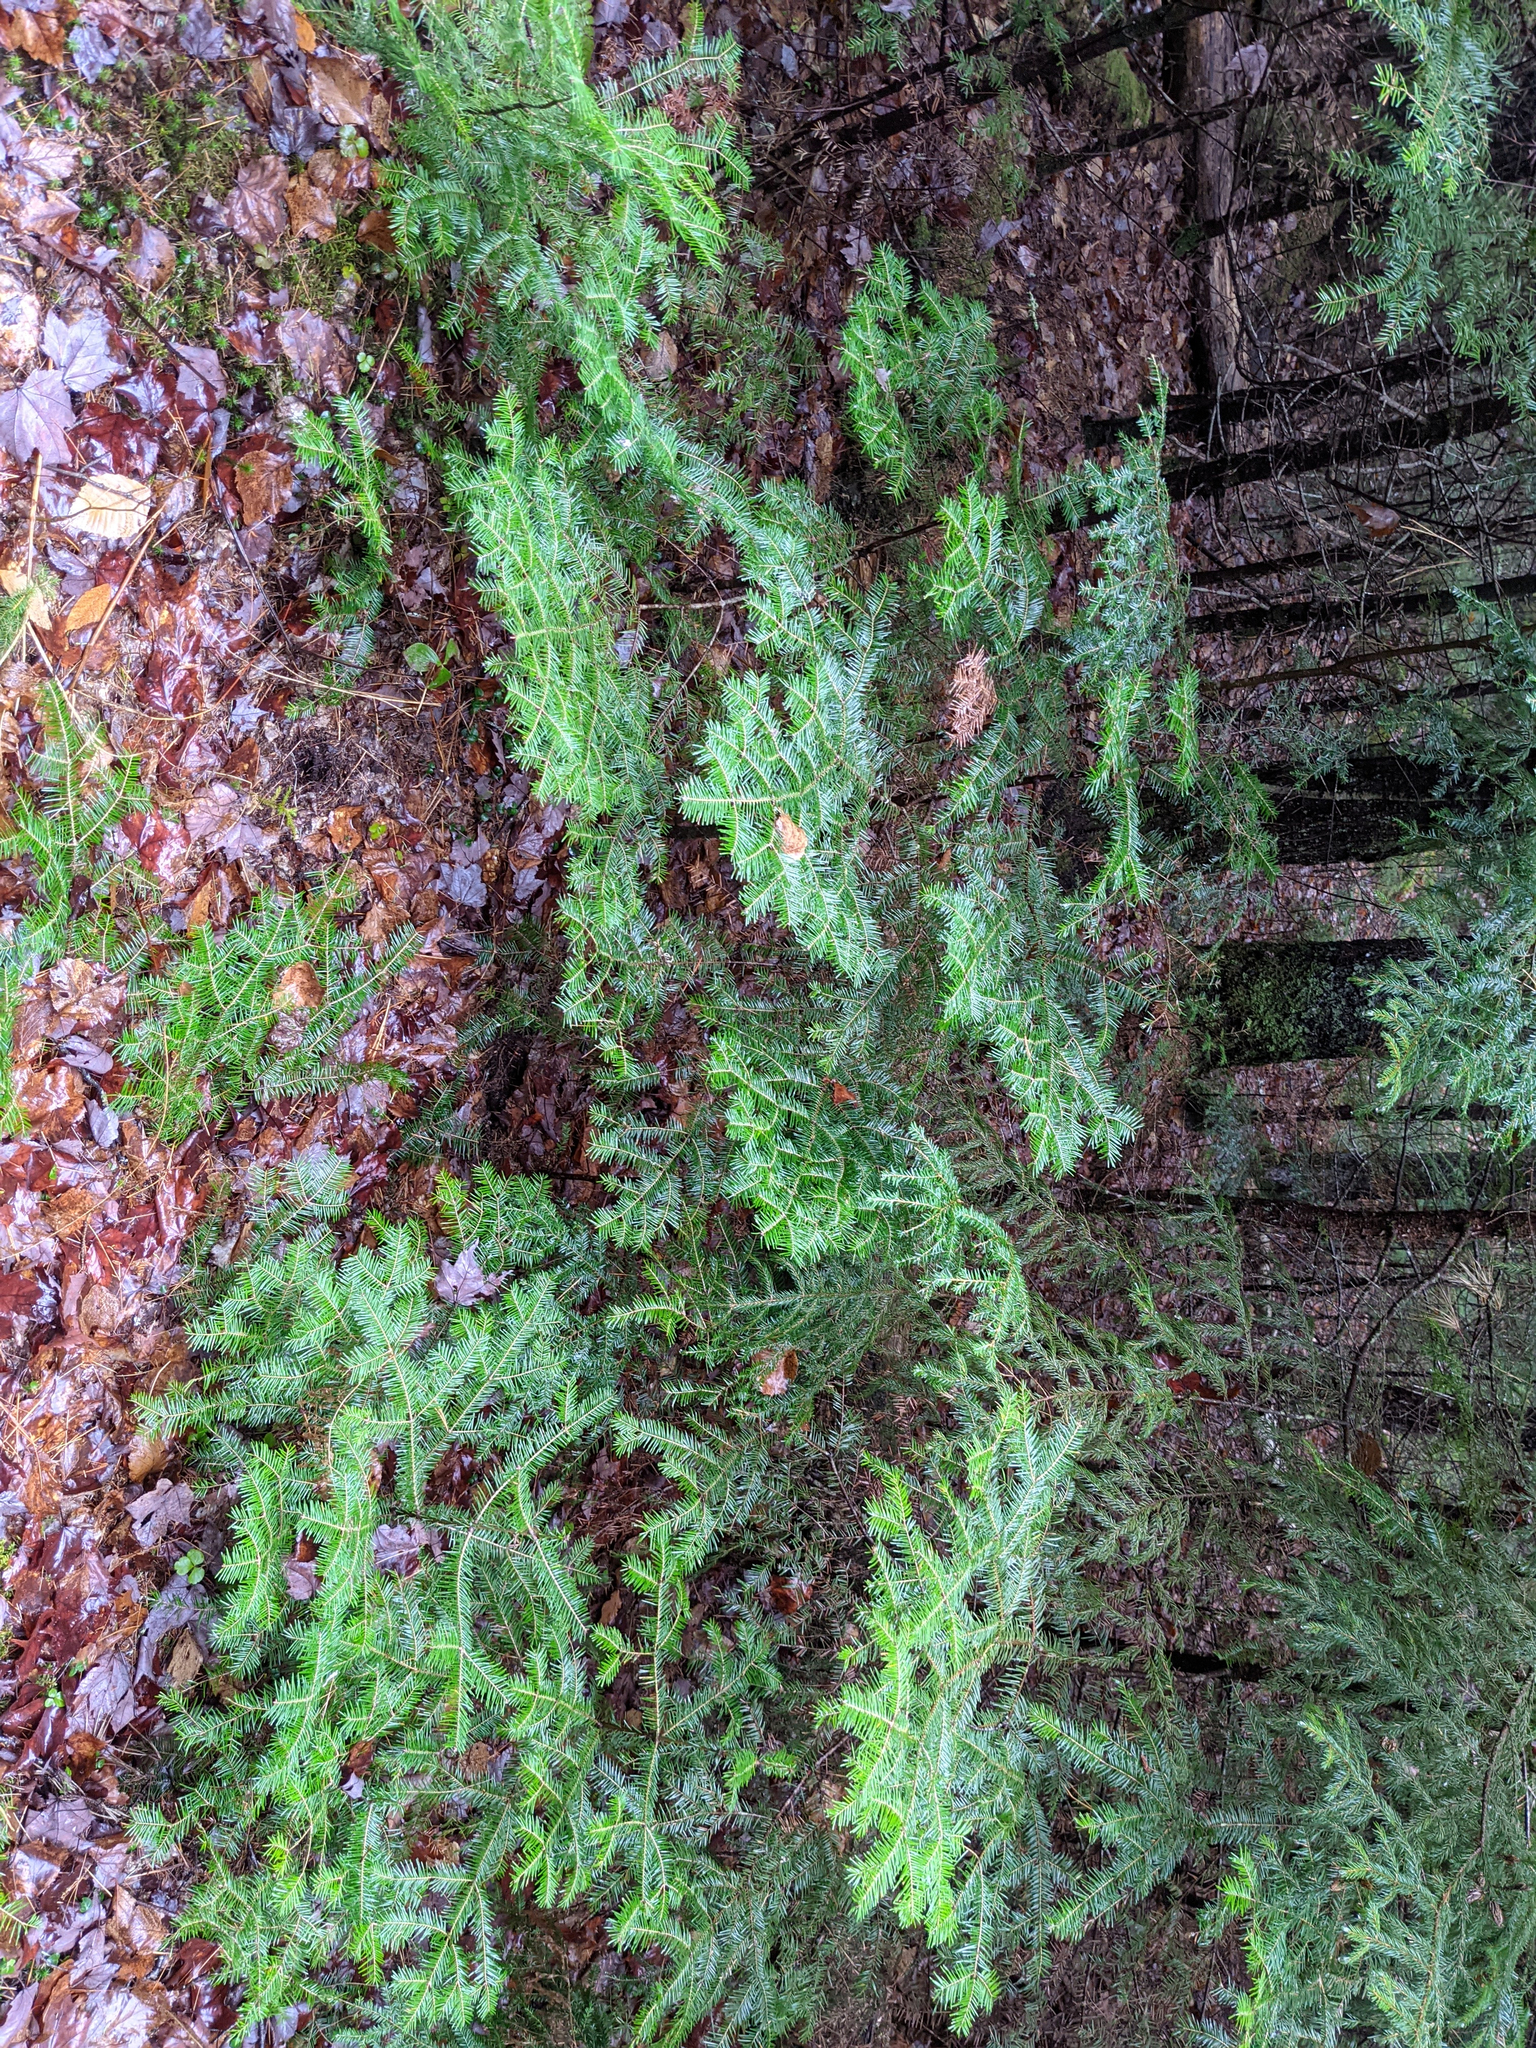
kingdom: Plantae
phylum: Tracheophyta
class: Pinopsida
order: Pinales
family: Pinaceae
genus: Abies
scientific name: Abies balsamea
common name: Balsam fir
